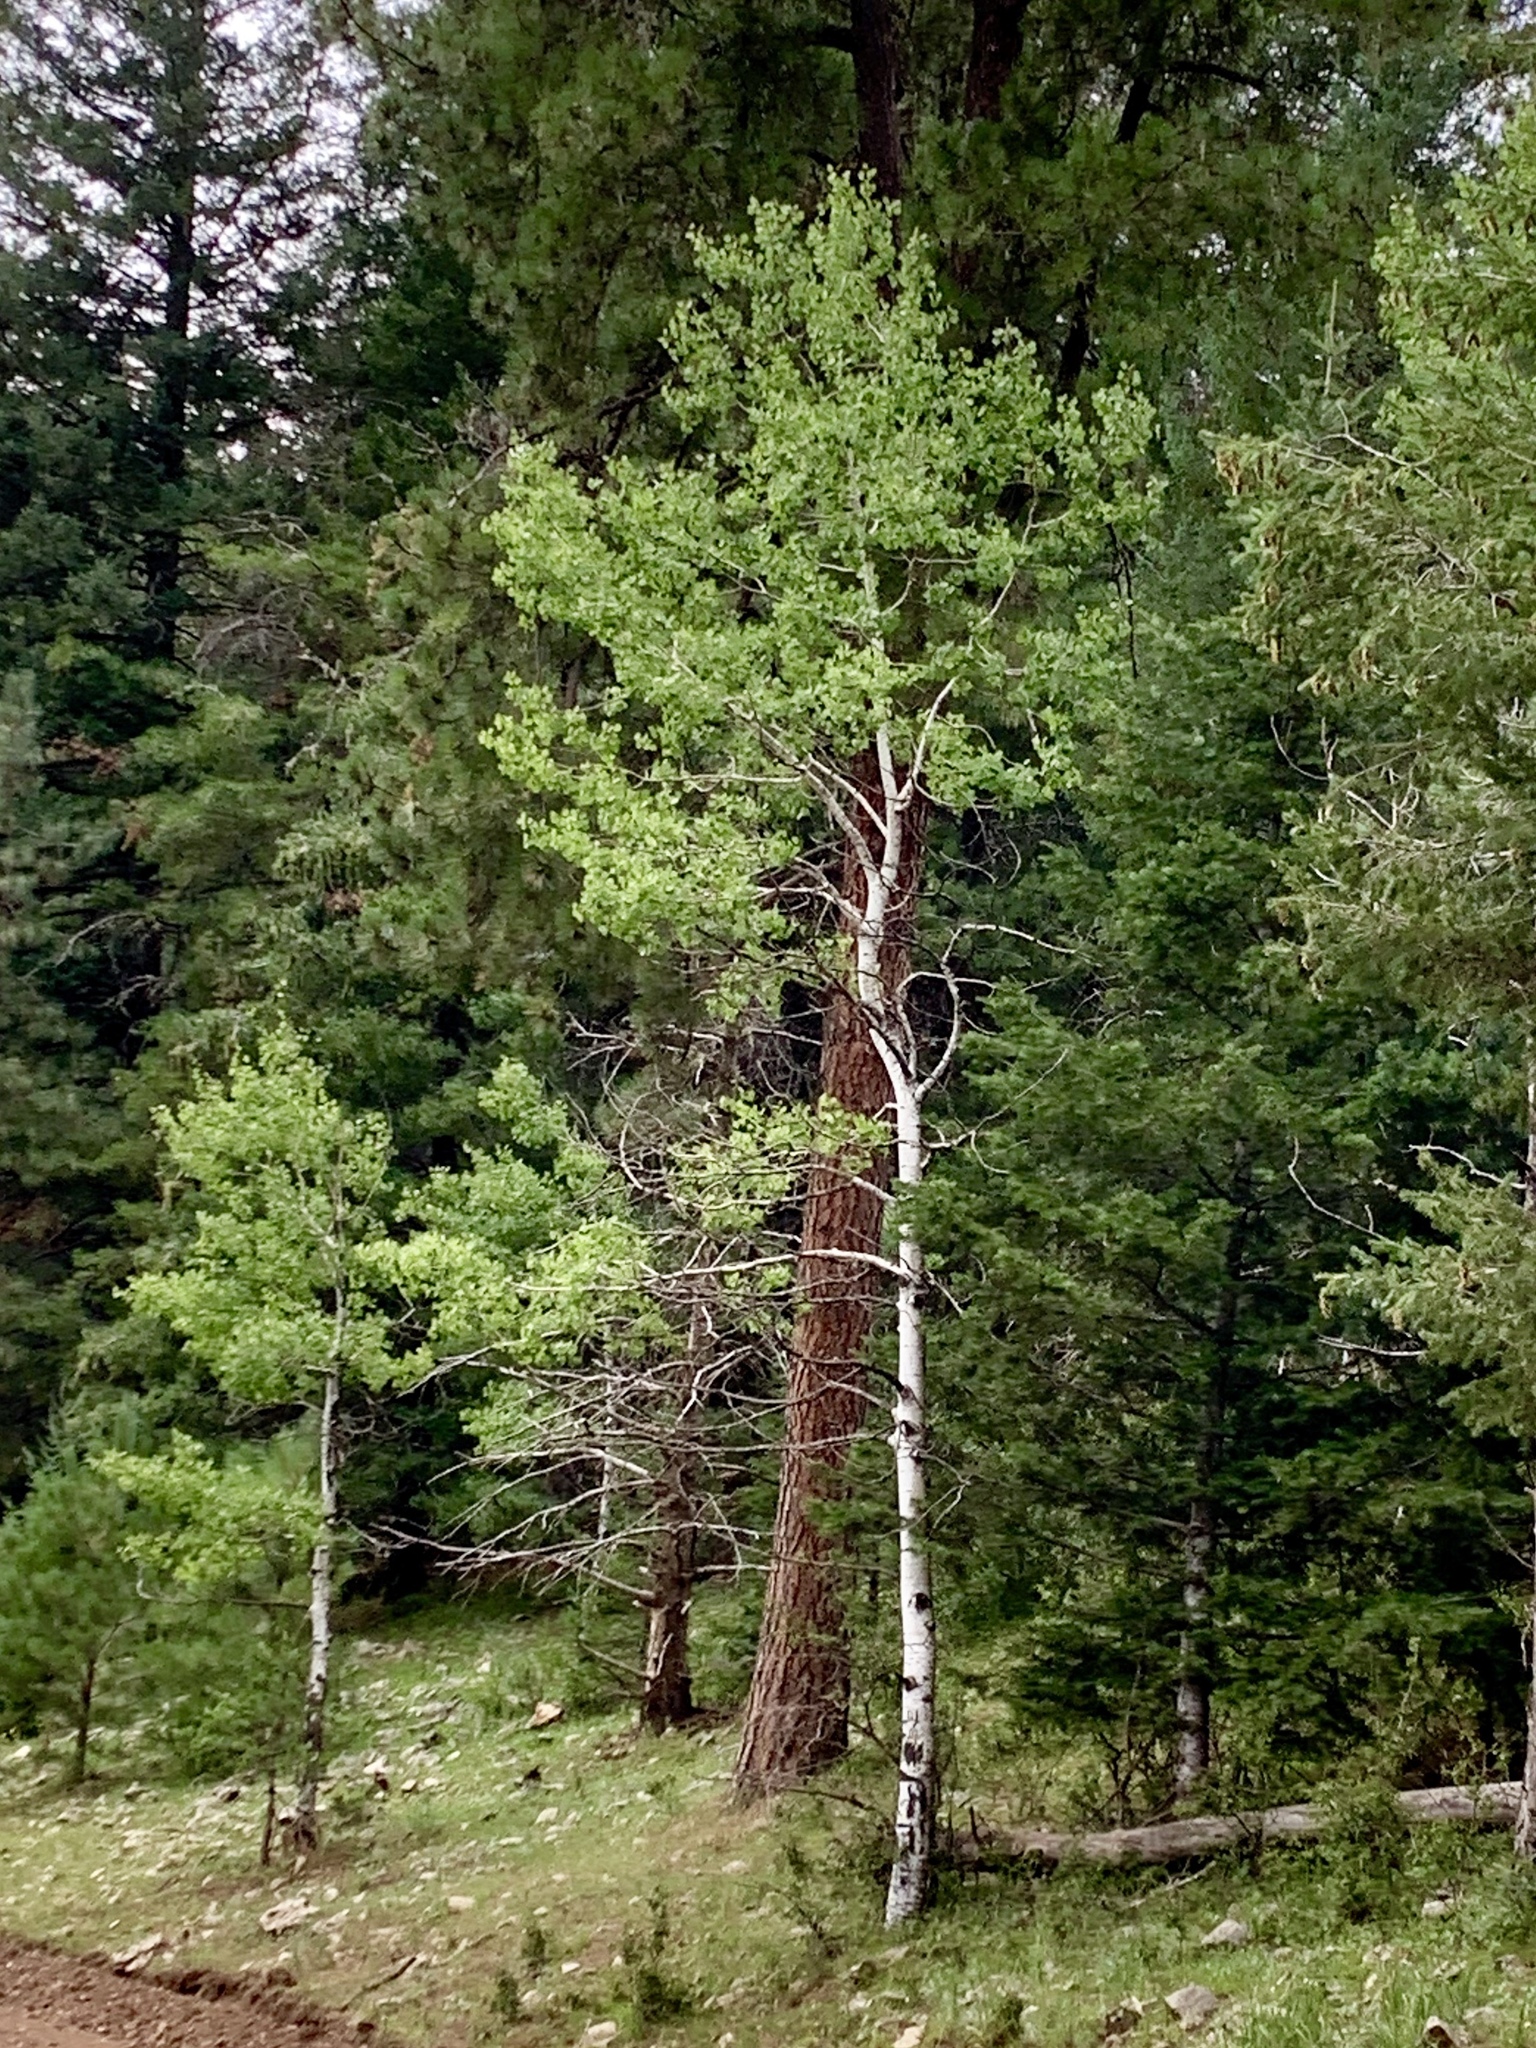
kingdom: Plantae
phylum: Tracheophyta
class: Magnoliopsida
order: Malpighiales
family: Salicaceae
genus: Populus
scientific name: Populus tremuloides
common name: Quaking aspen
